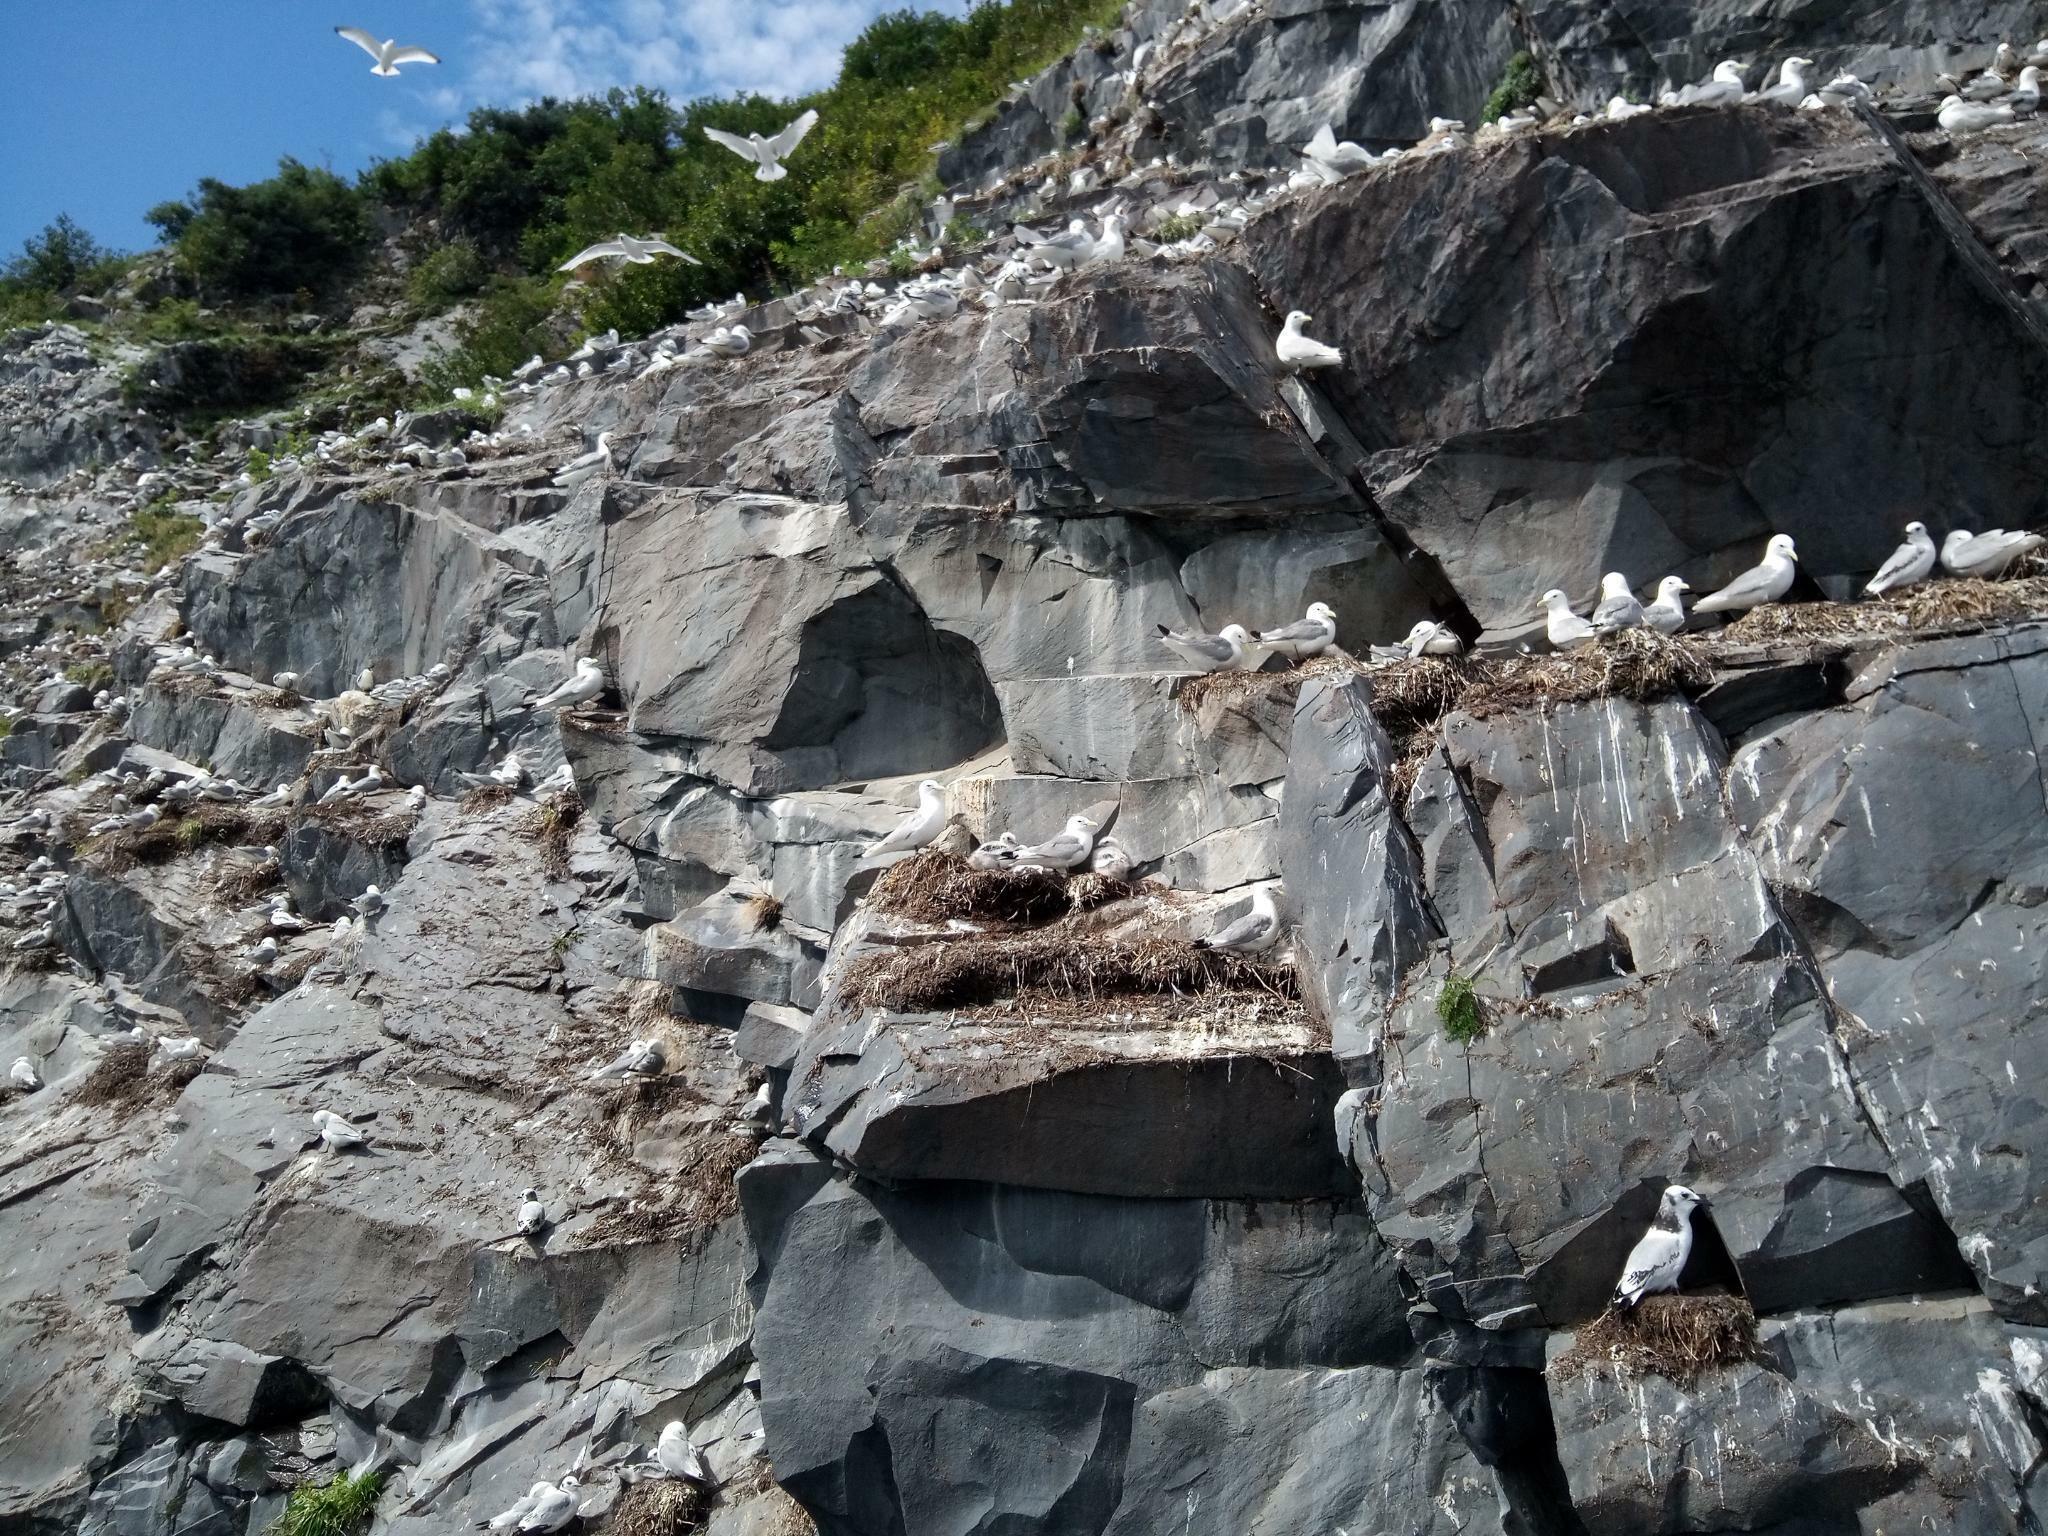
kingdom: Animalia
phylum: Chordata
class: Aves
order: Charadriiformes
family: Laridae
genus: Rissa
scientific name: Rissa tridactyla
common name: Black-legged kittiwake
